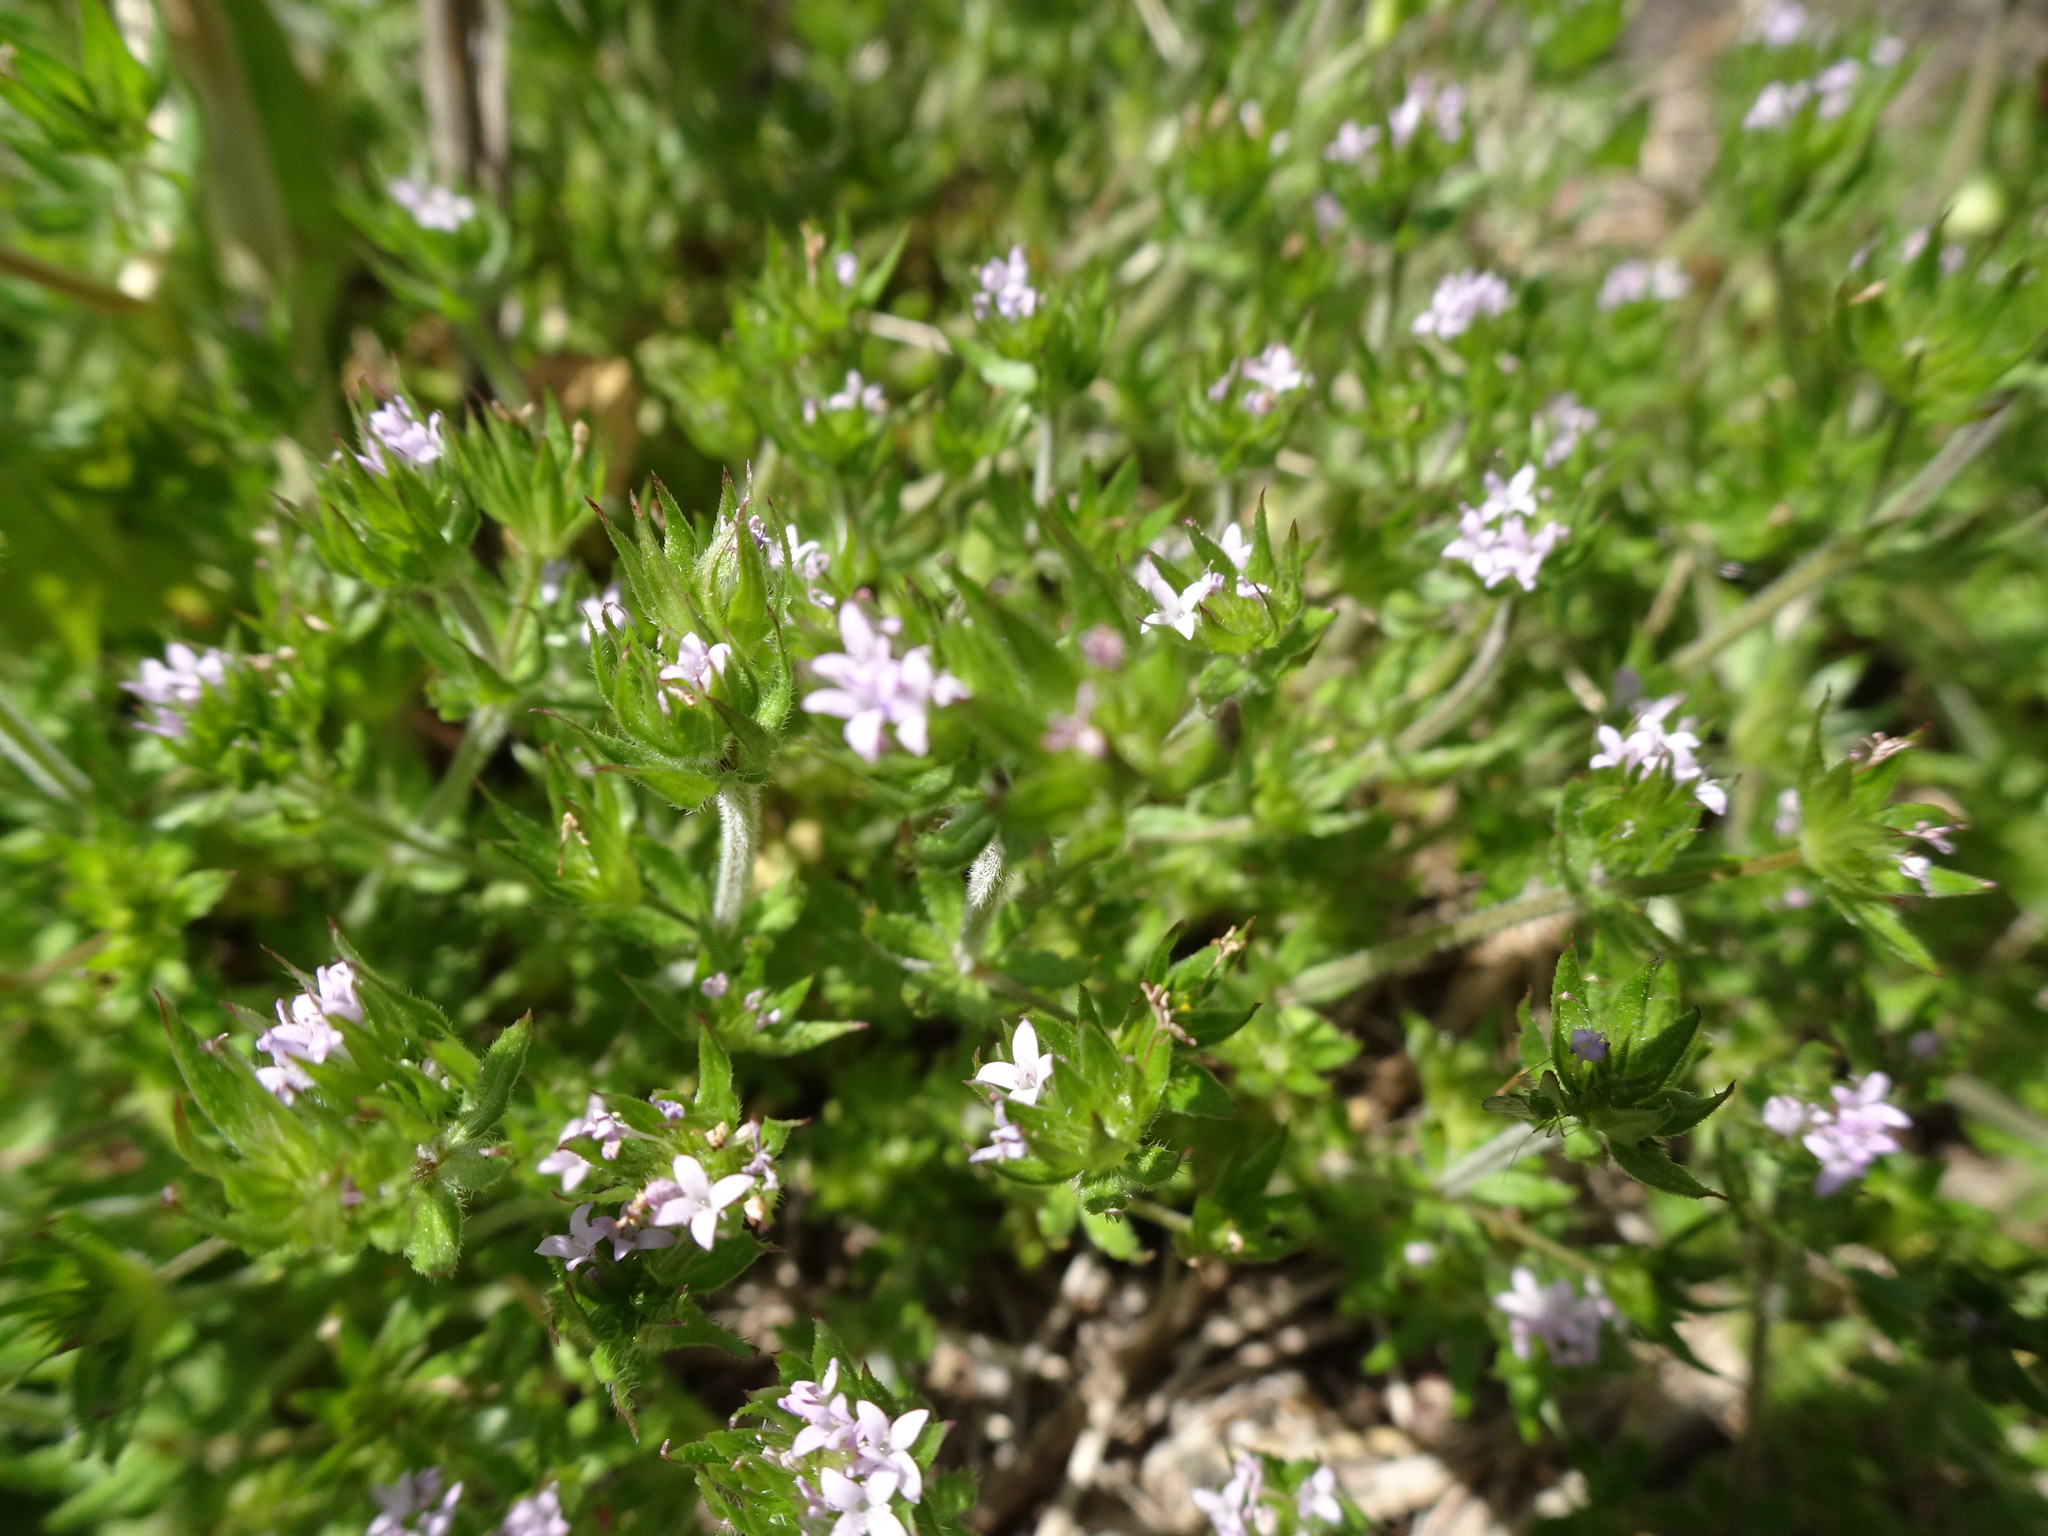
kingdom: Plantae
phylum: Tracheophyta
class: Magnoliopsida
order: Gentianales
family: Rubiaceae
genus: Sherardia
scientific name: Sherardia arvensis
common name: Field madder
